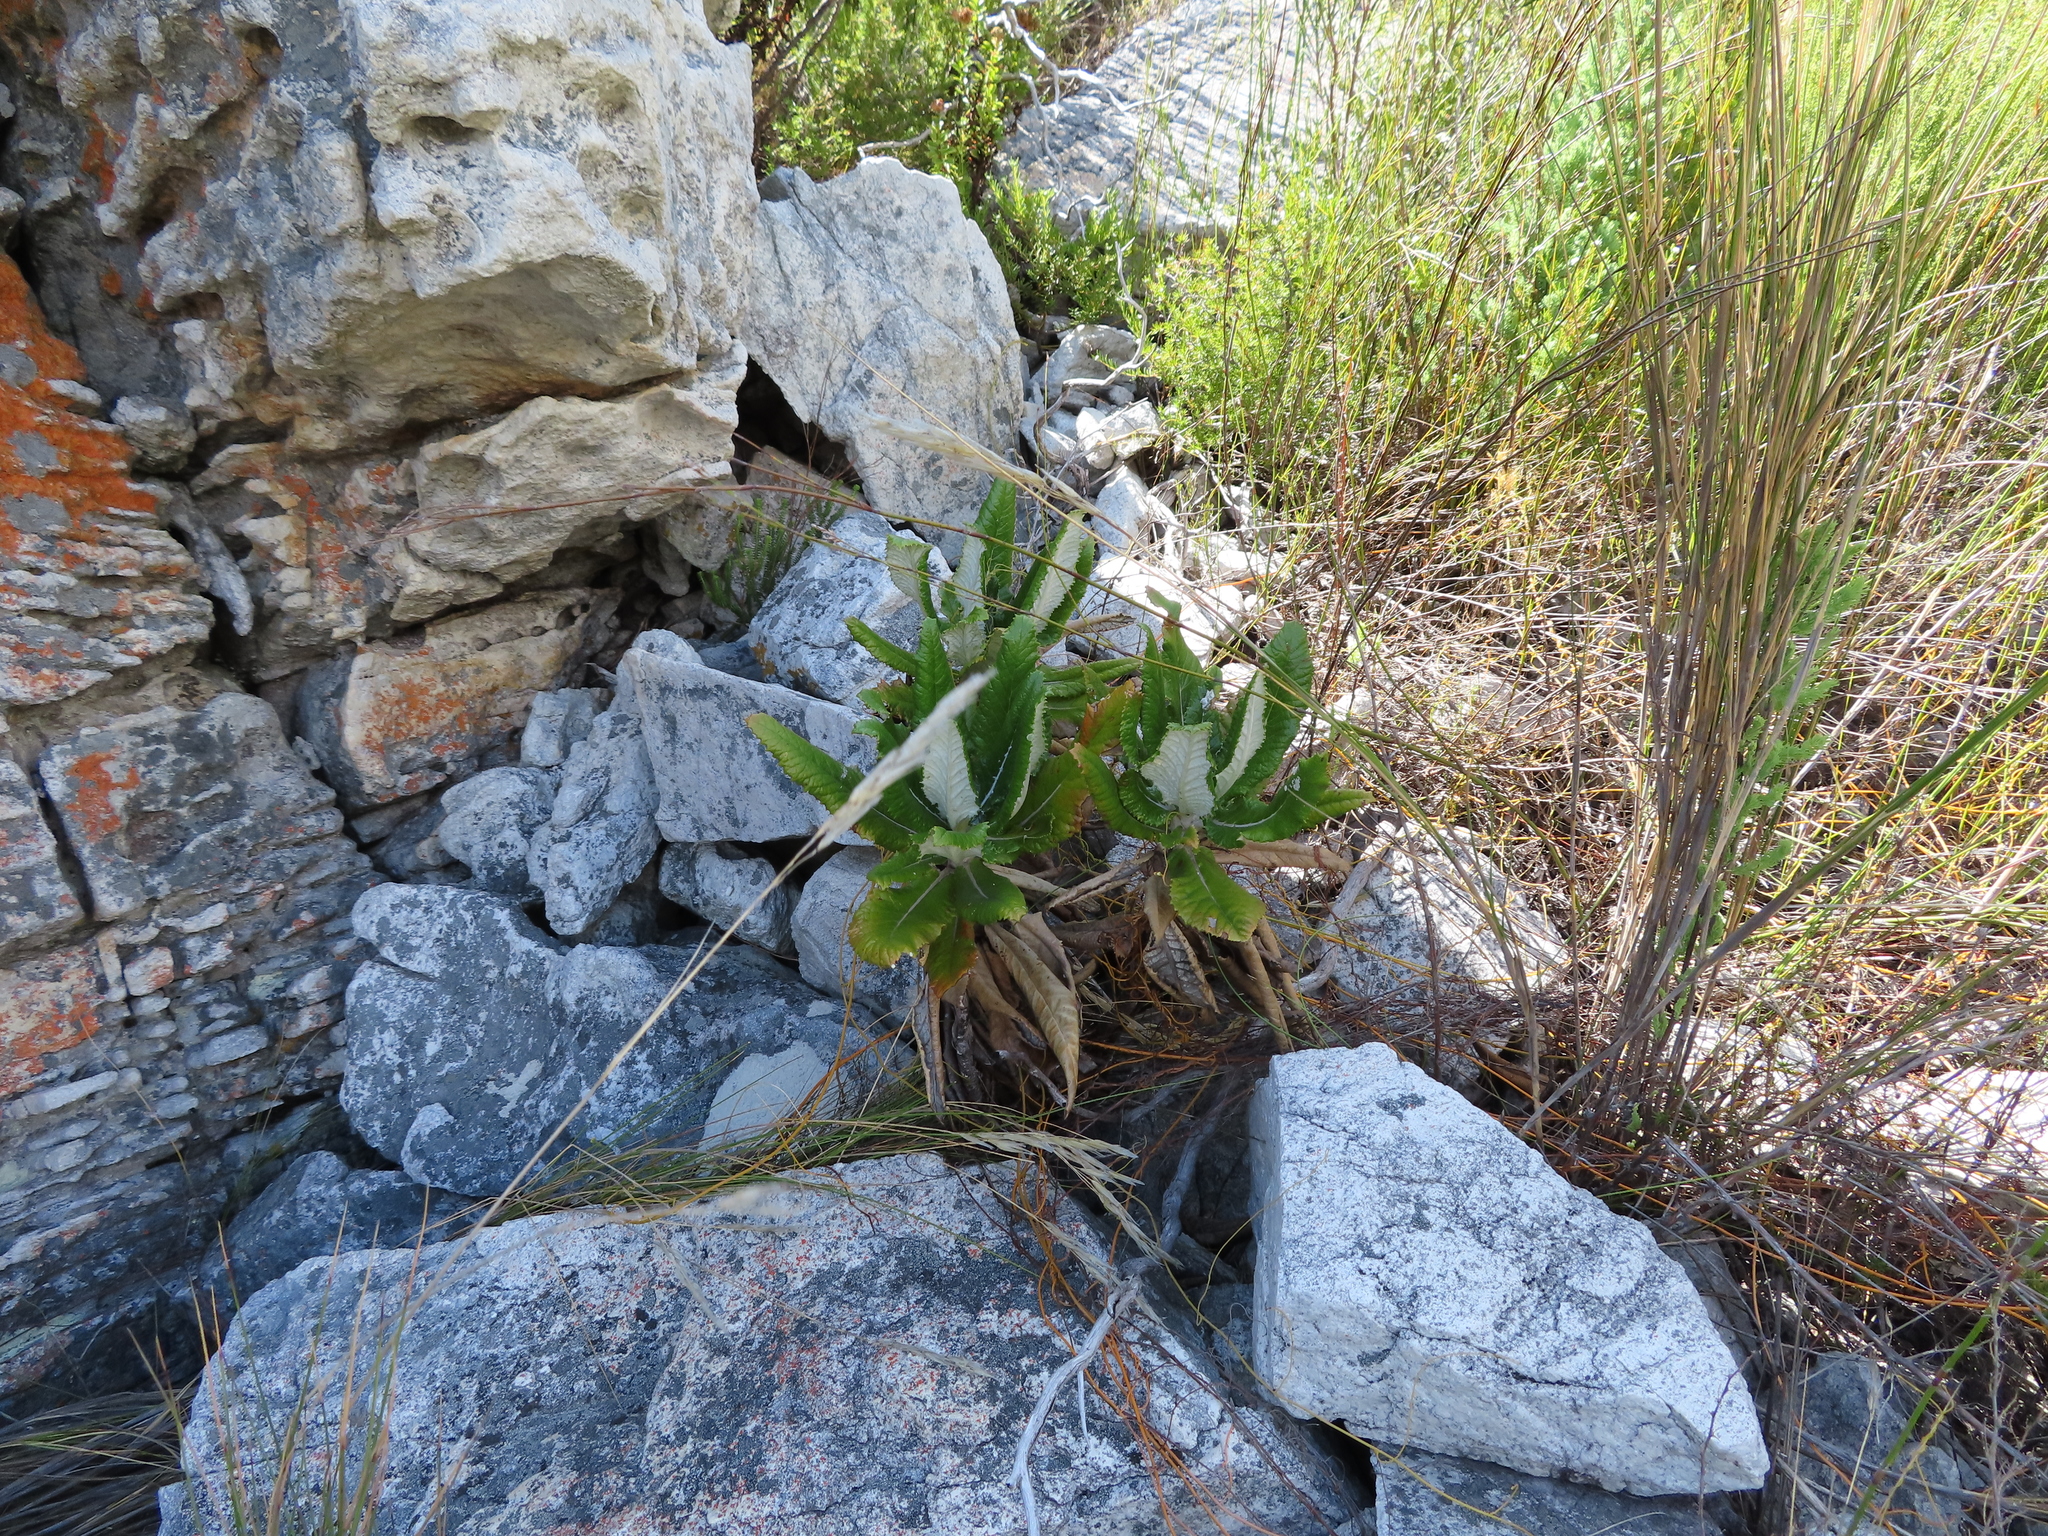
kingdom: Plantae
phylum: Tracheophyta
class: Magnoliopsida
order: Apiales
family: Apiaceae
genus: Hermas
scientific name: Hermas villosa
